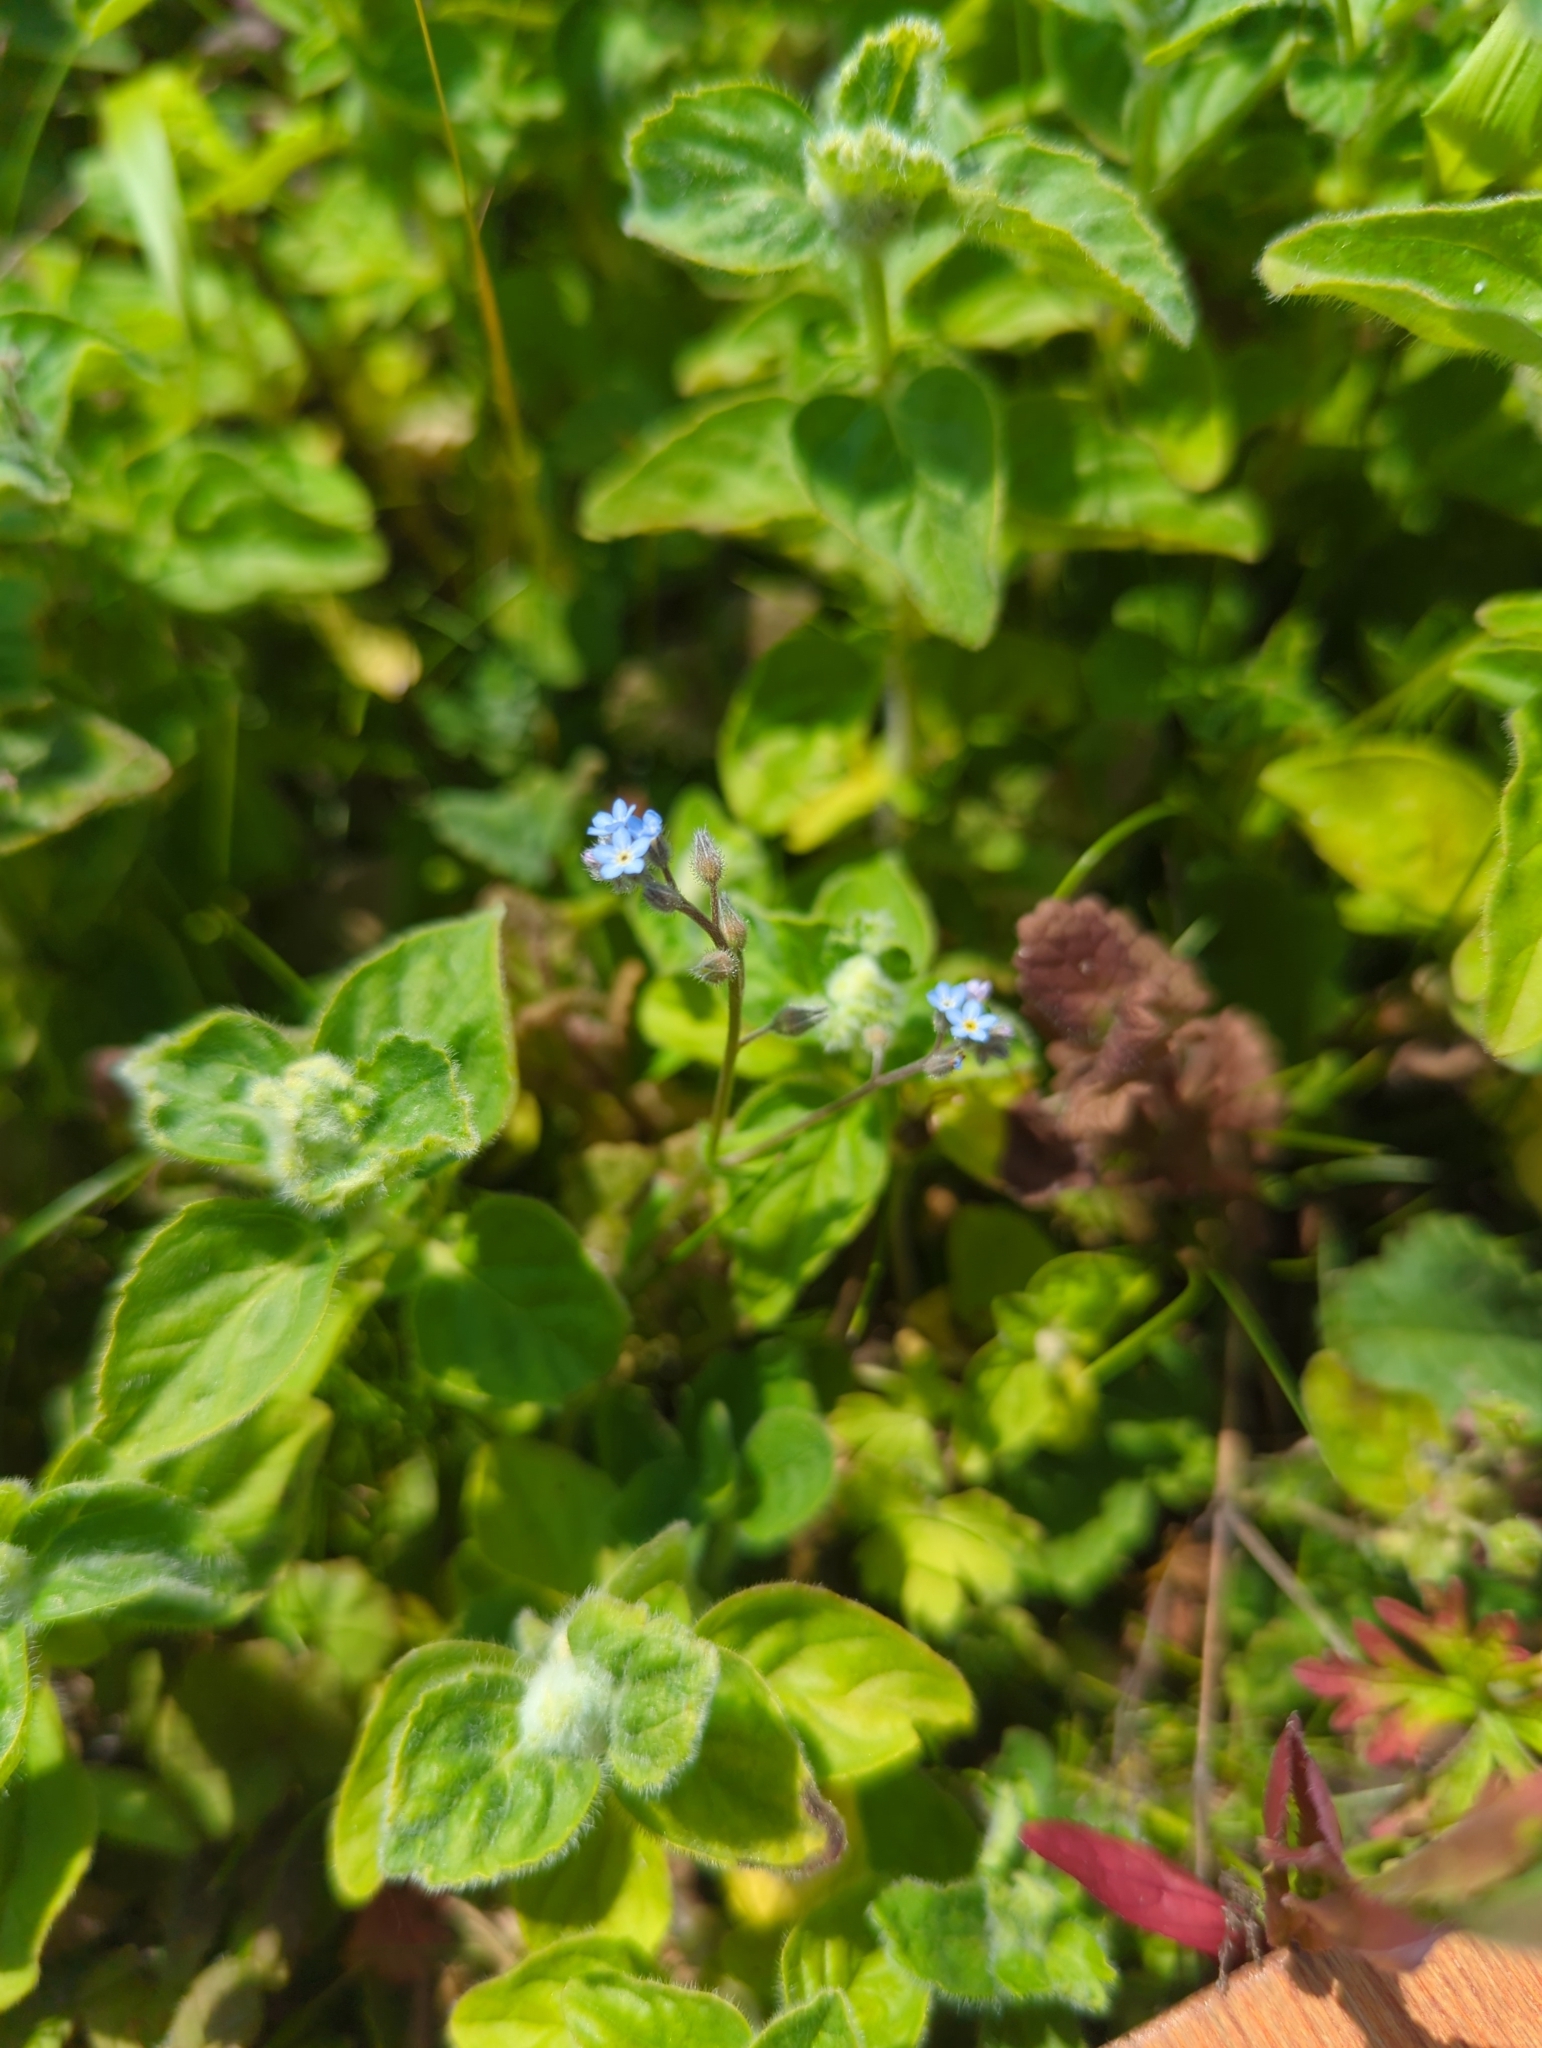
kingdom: Plantae
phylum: Tracheophyta
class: Magnoliopsida
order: Boraginales
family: Boraginaceae
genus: Myosotis
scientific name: Myosotis arvensis
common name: Field forget-me-not
